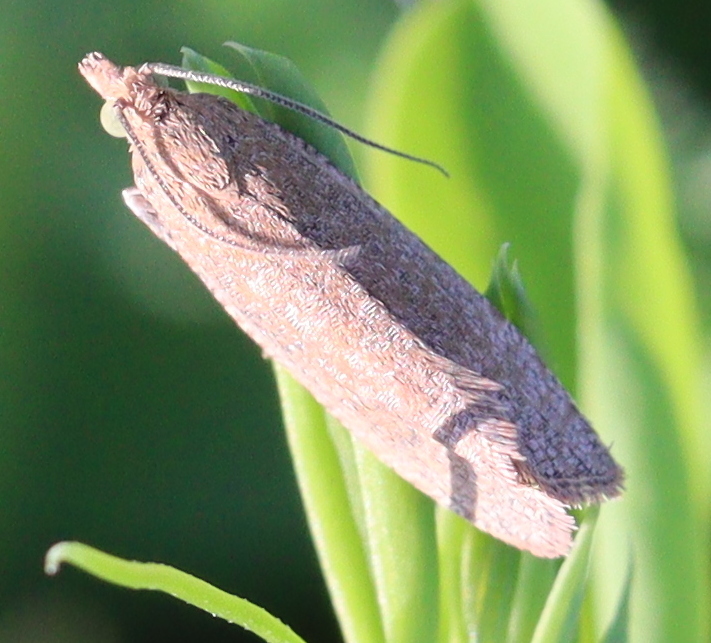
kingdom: Animalia
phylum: Arthropoda
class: Insecta
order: Lepidoptera
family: Tortricidae
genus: Celypha
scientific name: Celypha rufana
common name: Lakes marble
